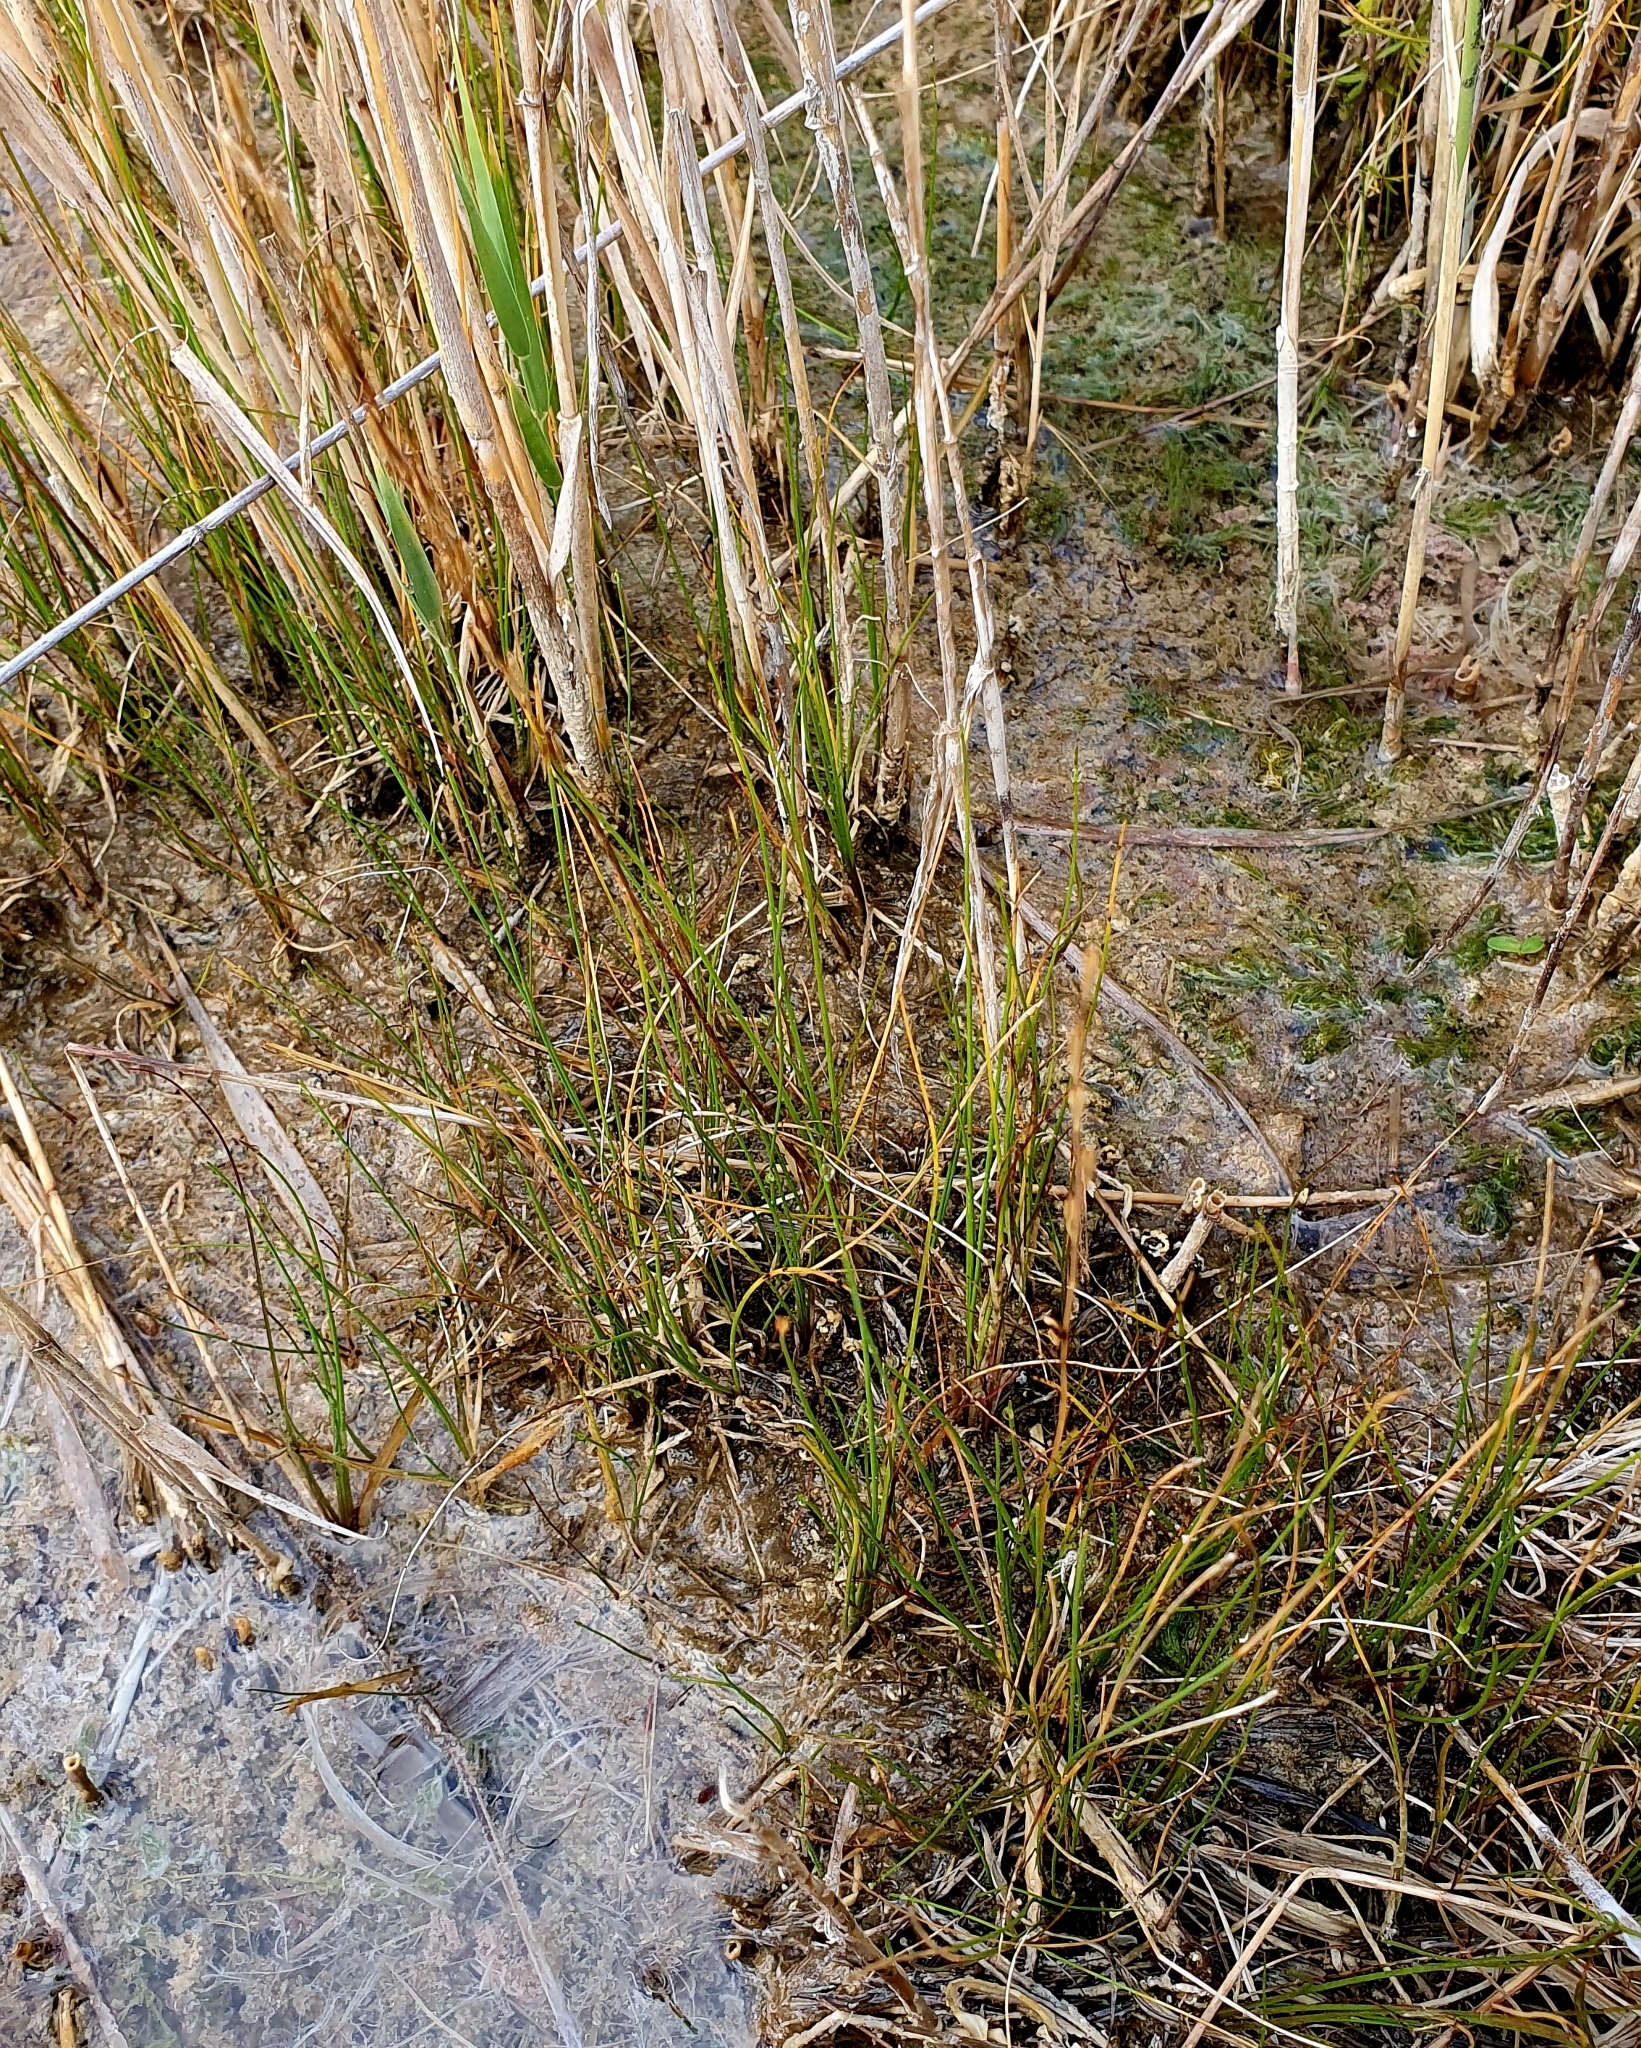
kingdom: Plantae
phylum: Tracheophyta
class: Liliopsida
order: Alismatales
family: Juncaginaceae
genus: Triglochin
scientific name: Triglochin palustris
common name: Marsh arrowgrass
